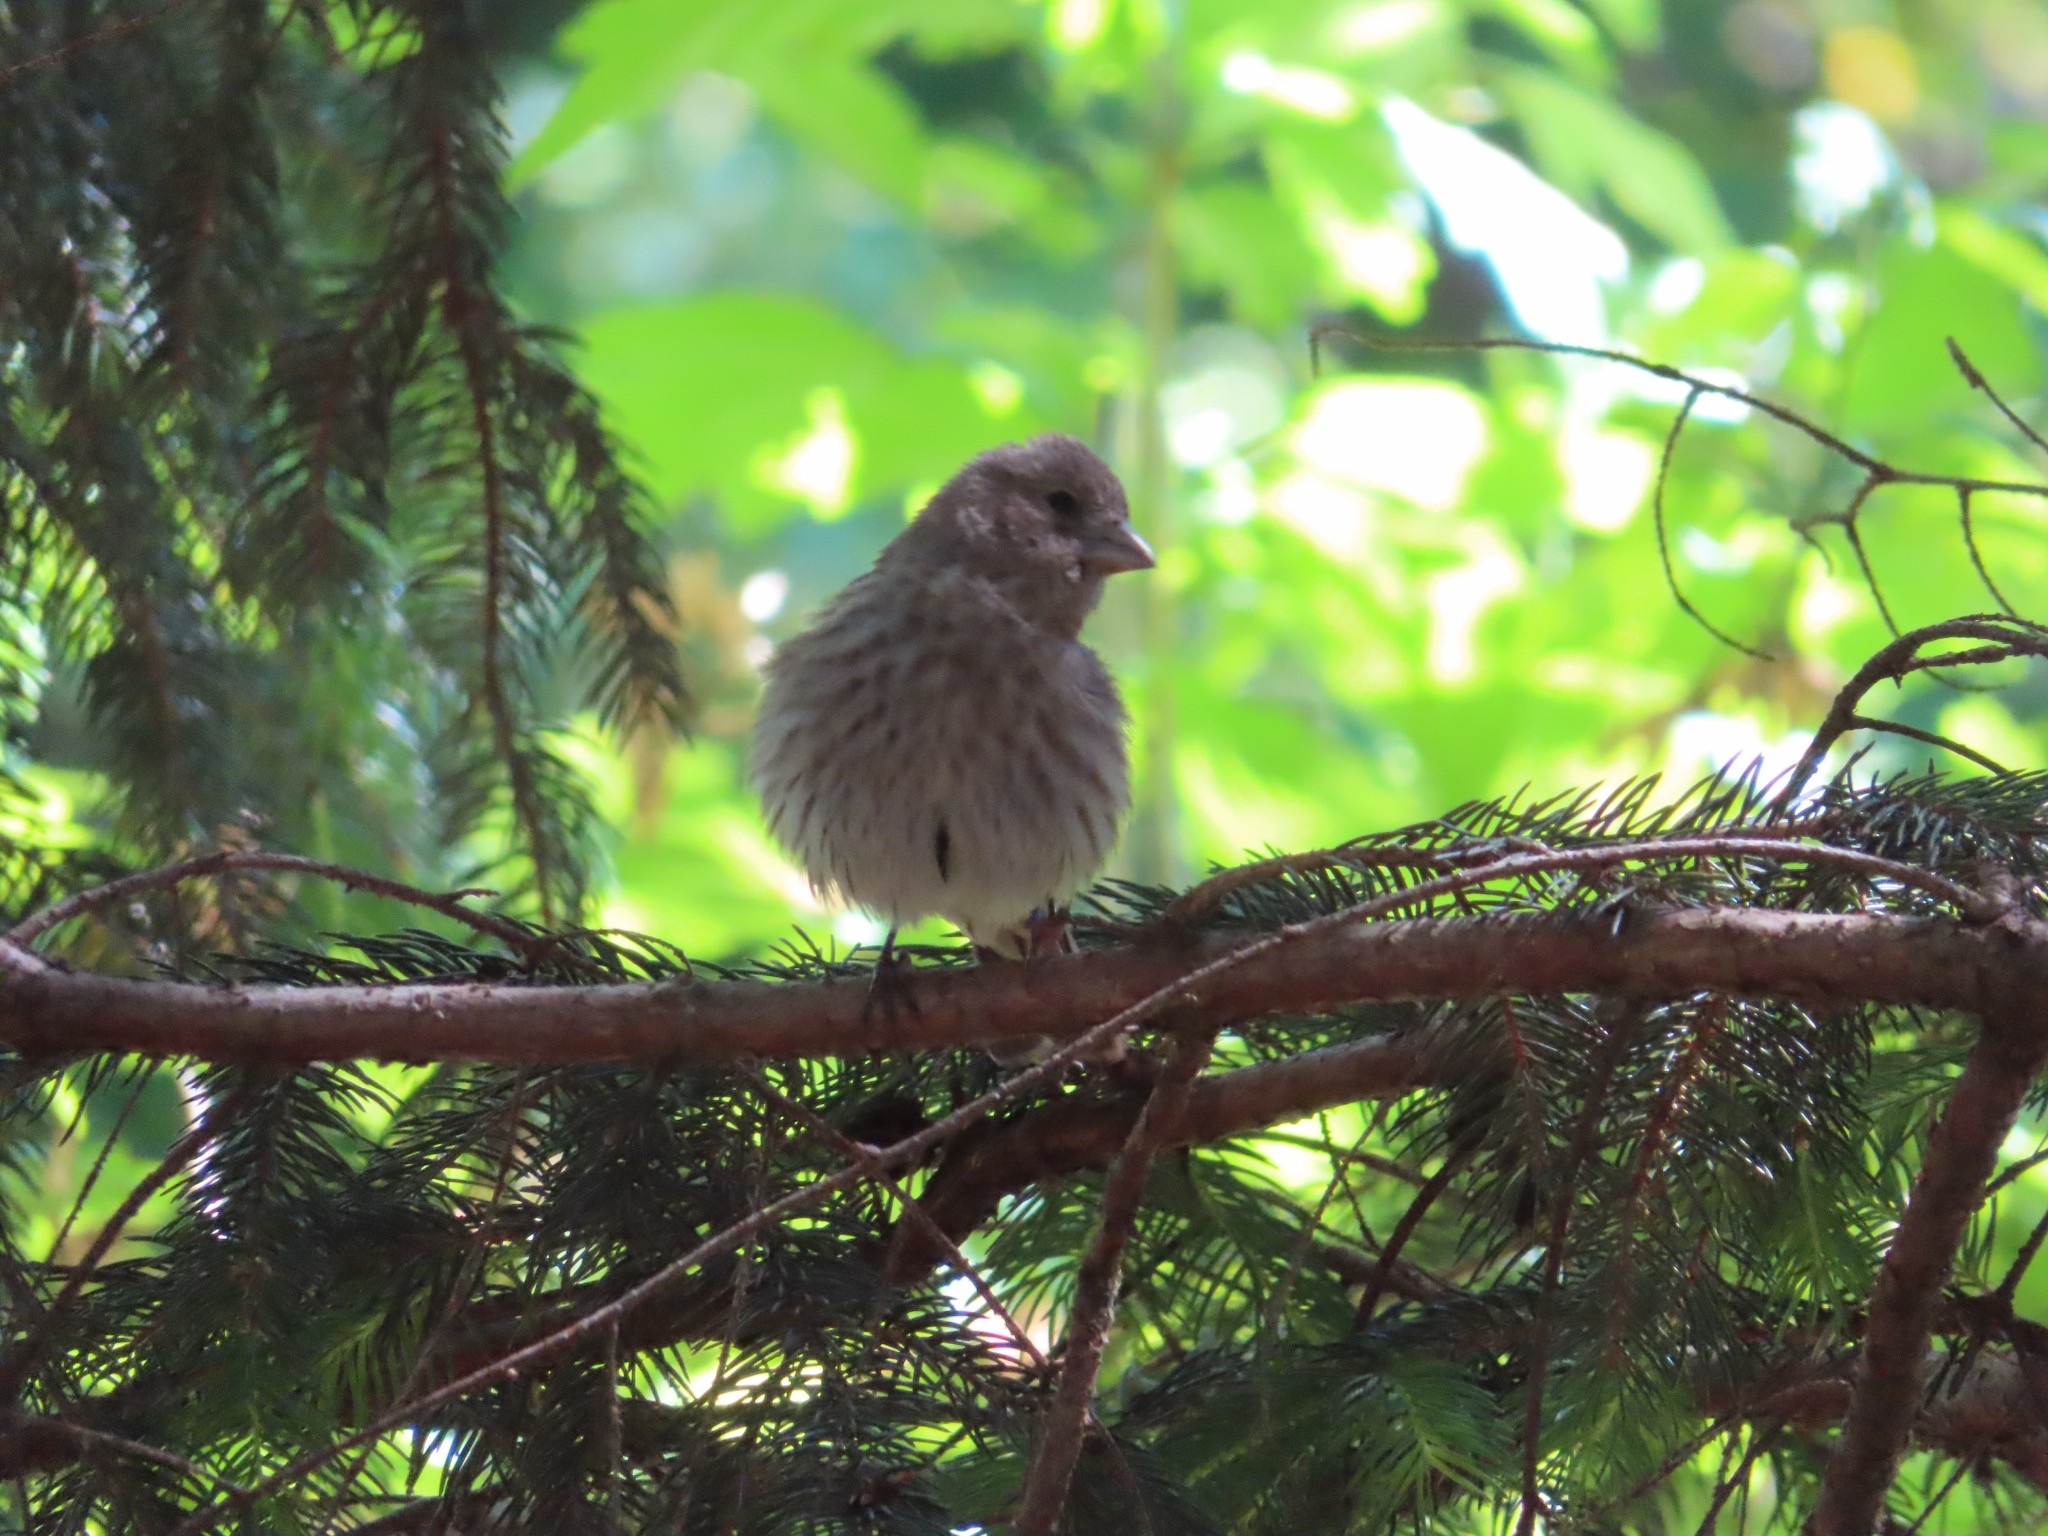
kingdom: Animalia
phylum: Chordata
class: Aves
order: Passeriformes
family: Fringillidae
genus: Haemorhous
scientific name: Haemorhous mexicanus
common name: House finch
